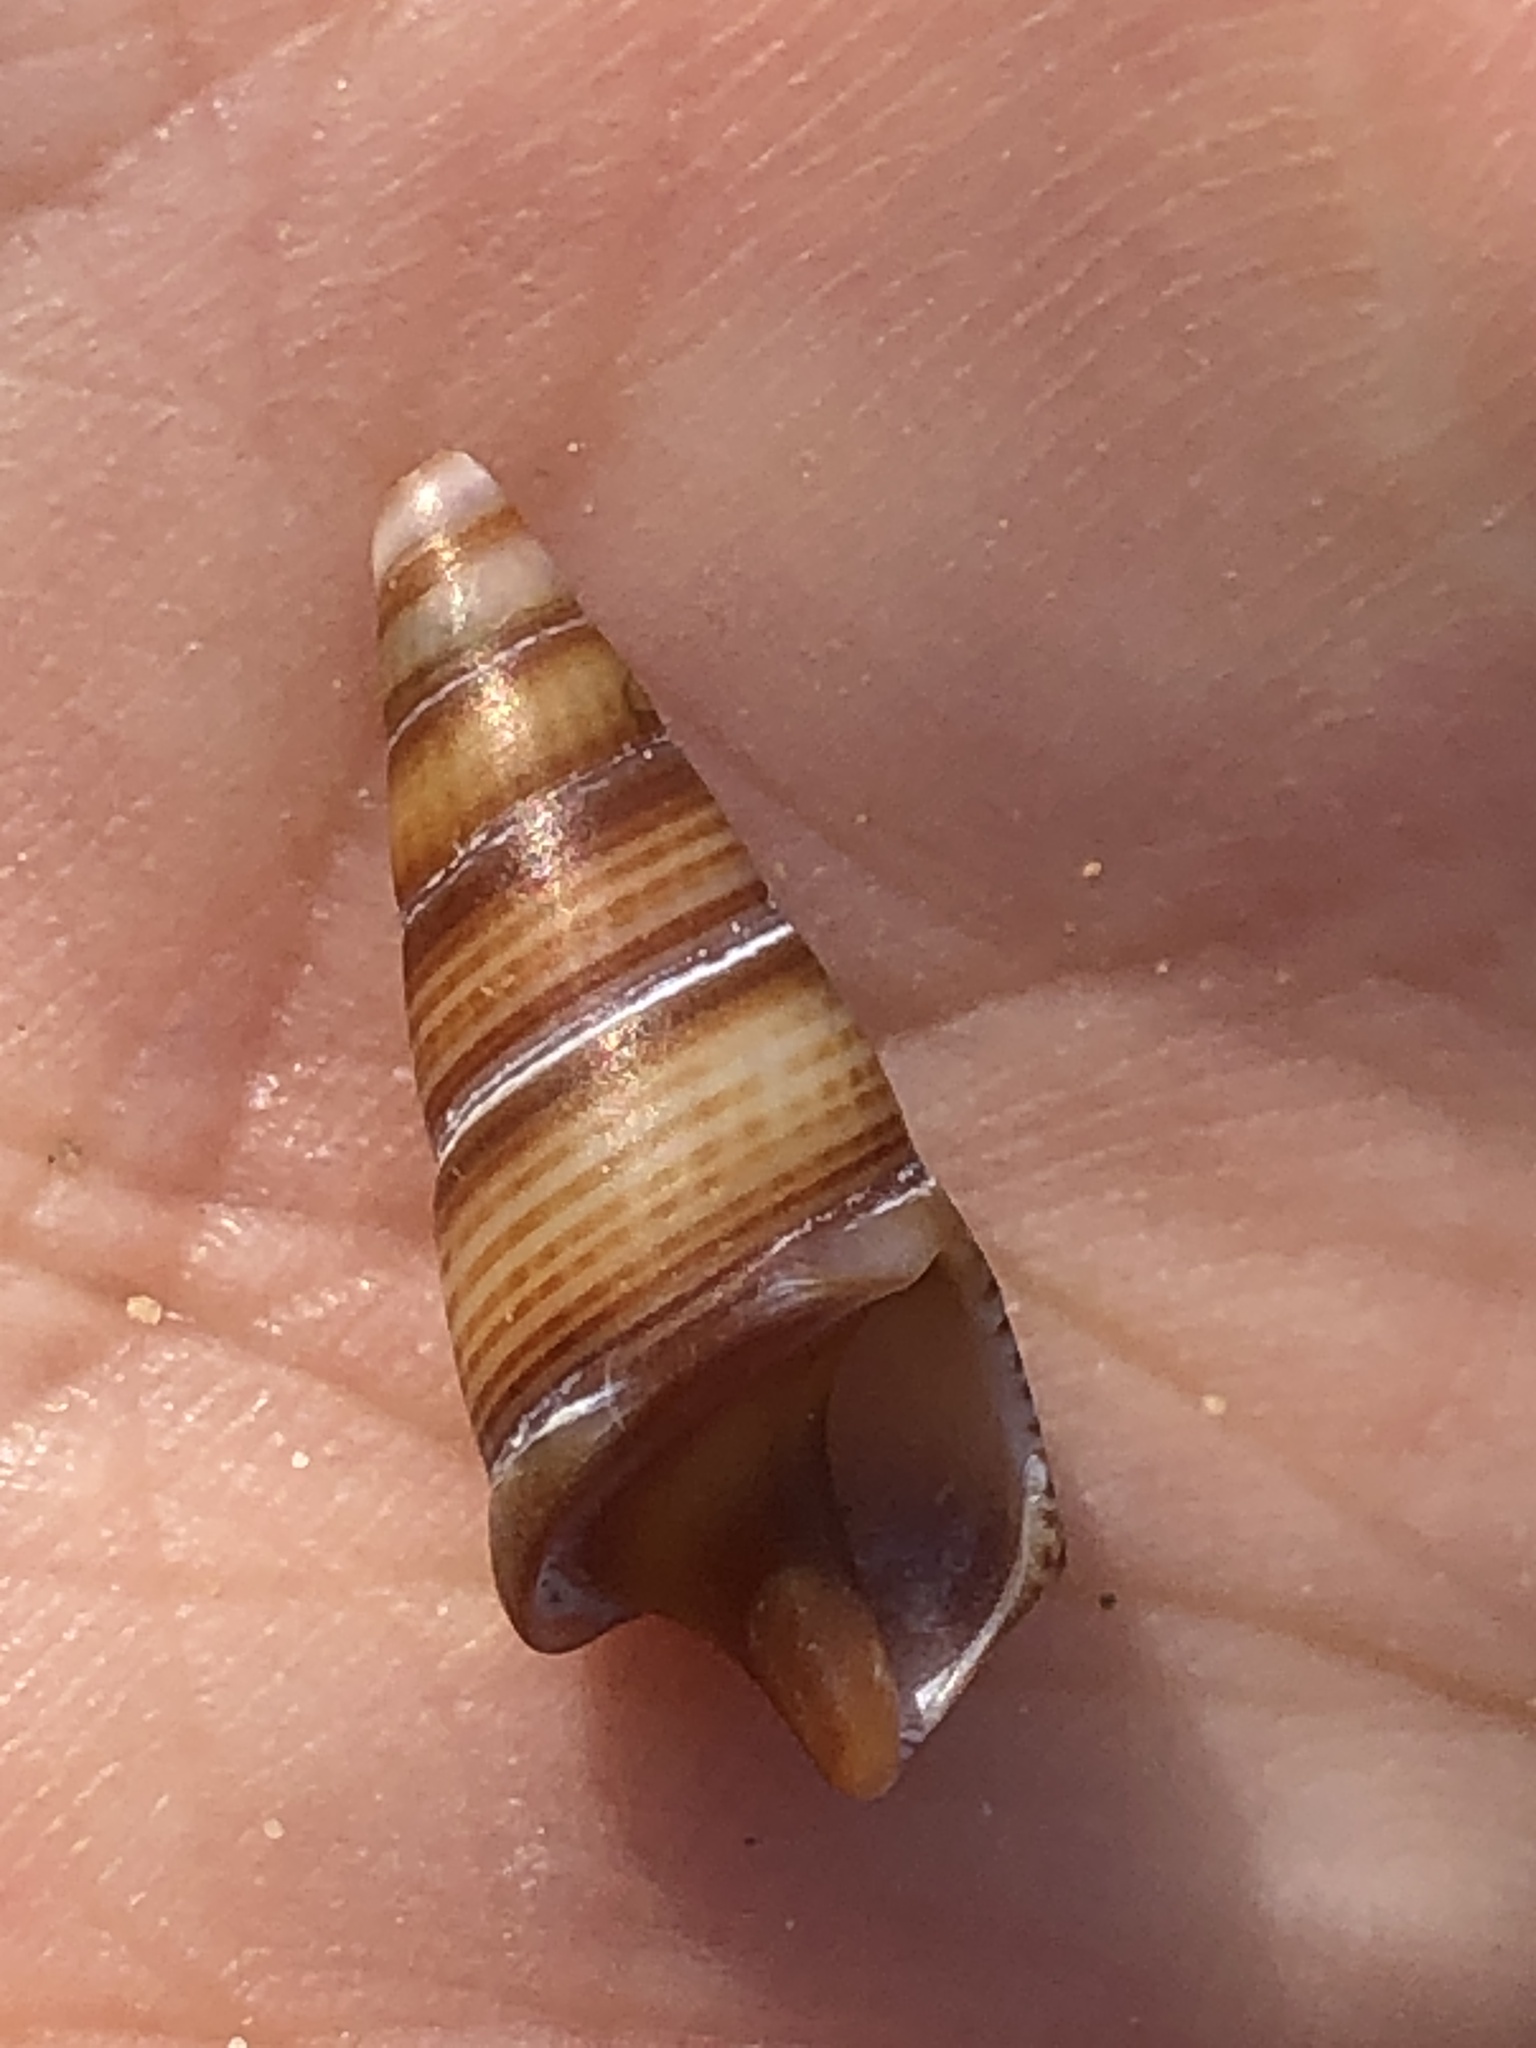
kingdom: Animalia
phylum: Mollusca
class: Gastropoda
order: Neogastropoda
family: Borsoniidae
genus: Ophiodermella
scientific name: Ophiodermella inermis
